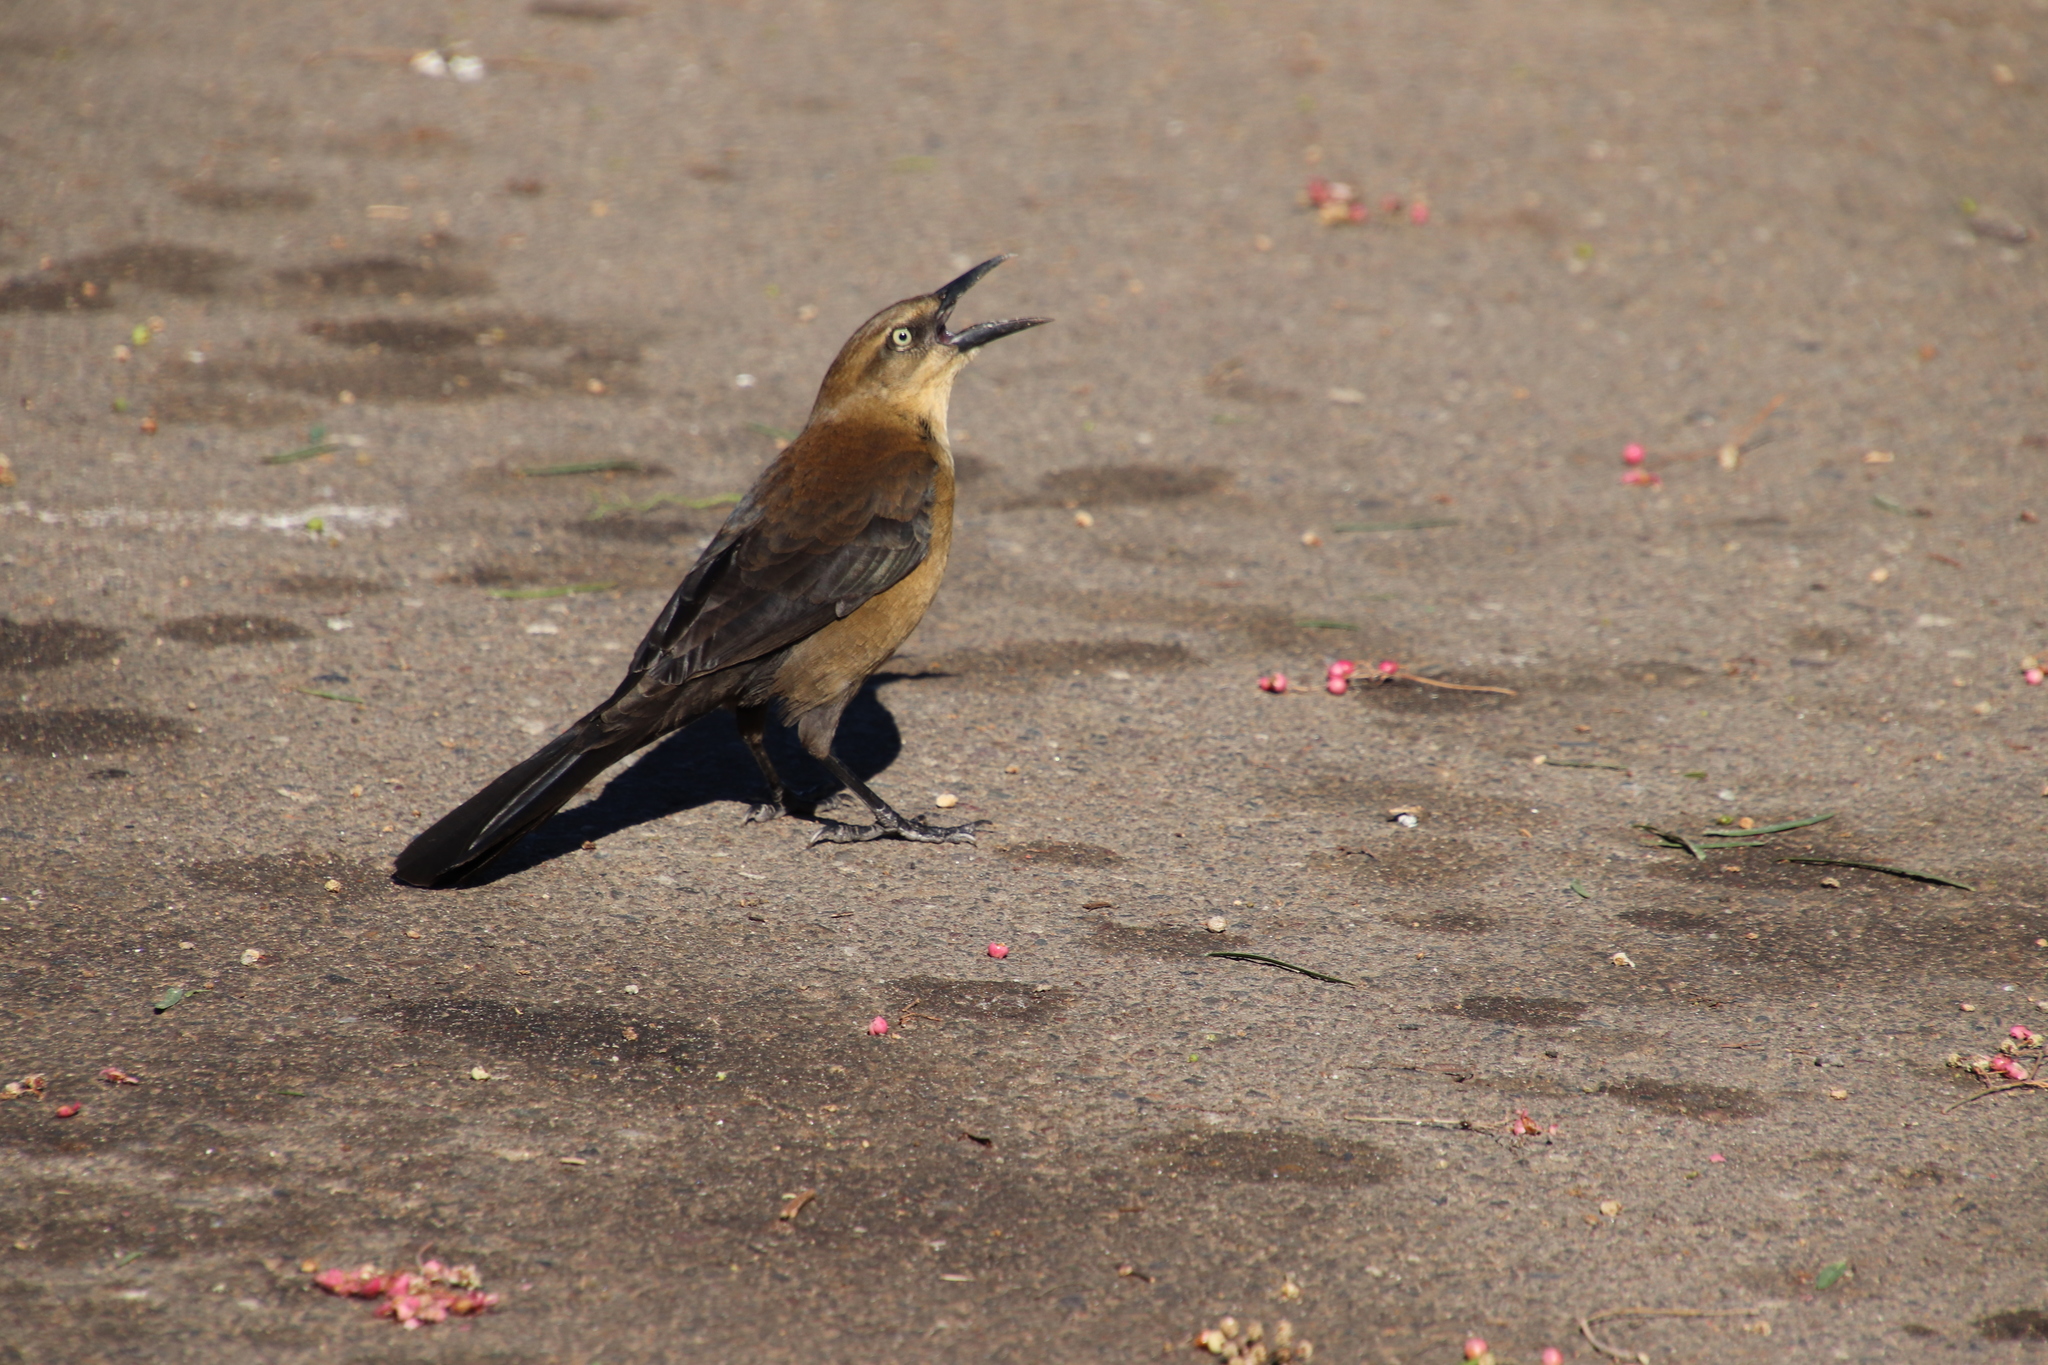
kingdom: Animalia
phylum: Chordata
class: Aves
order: Passeriformes
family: Icteridae
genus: Quiscalus
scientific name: Quiscalus mexicanus
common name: Great-tailed grackle
